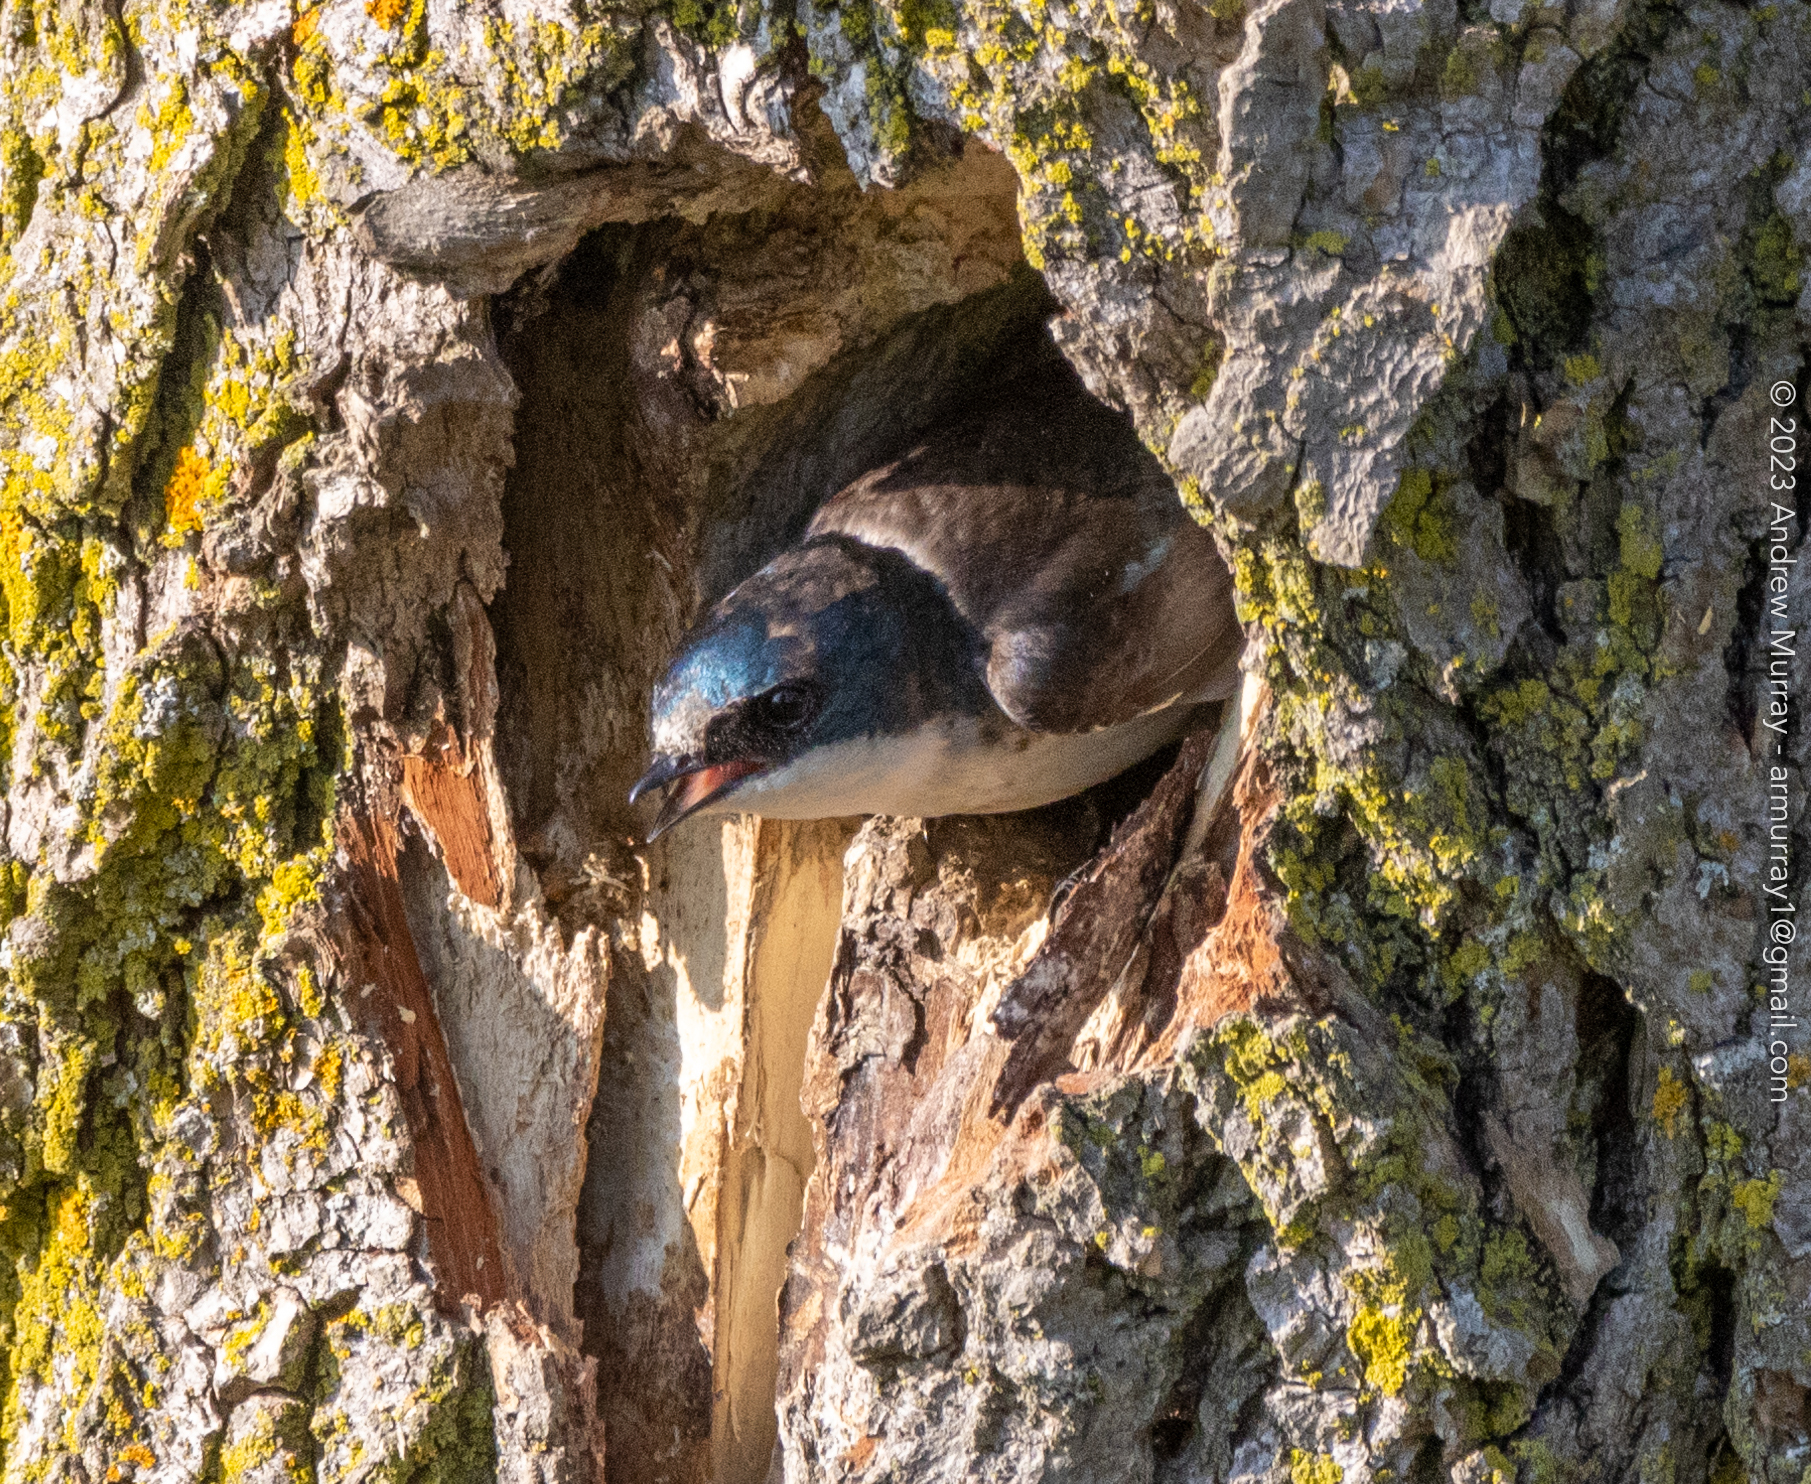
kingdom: Animalia
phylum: Chordata
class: Aves
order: Passeriformes
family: Hirundinidae
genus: Tachycineta
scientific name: Tachycineta bicolor
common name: Tree swallow
